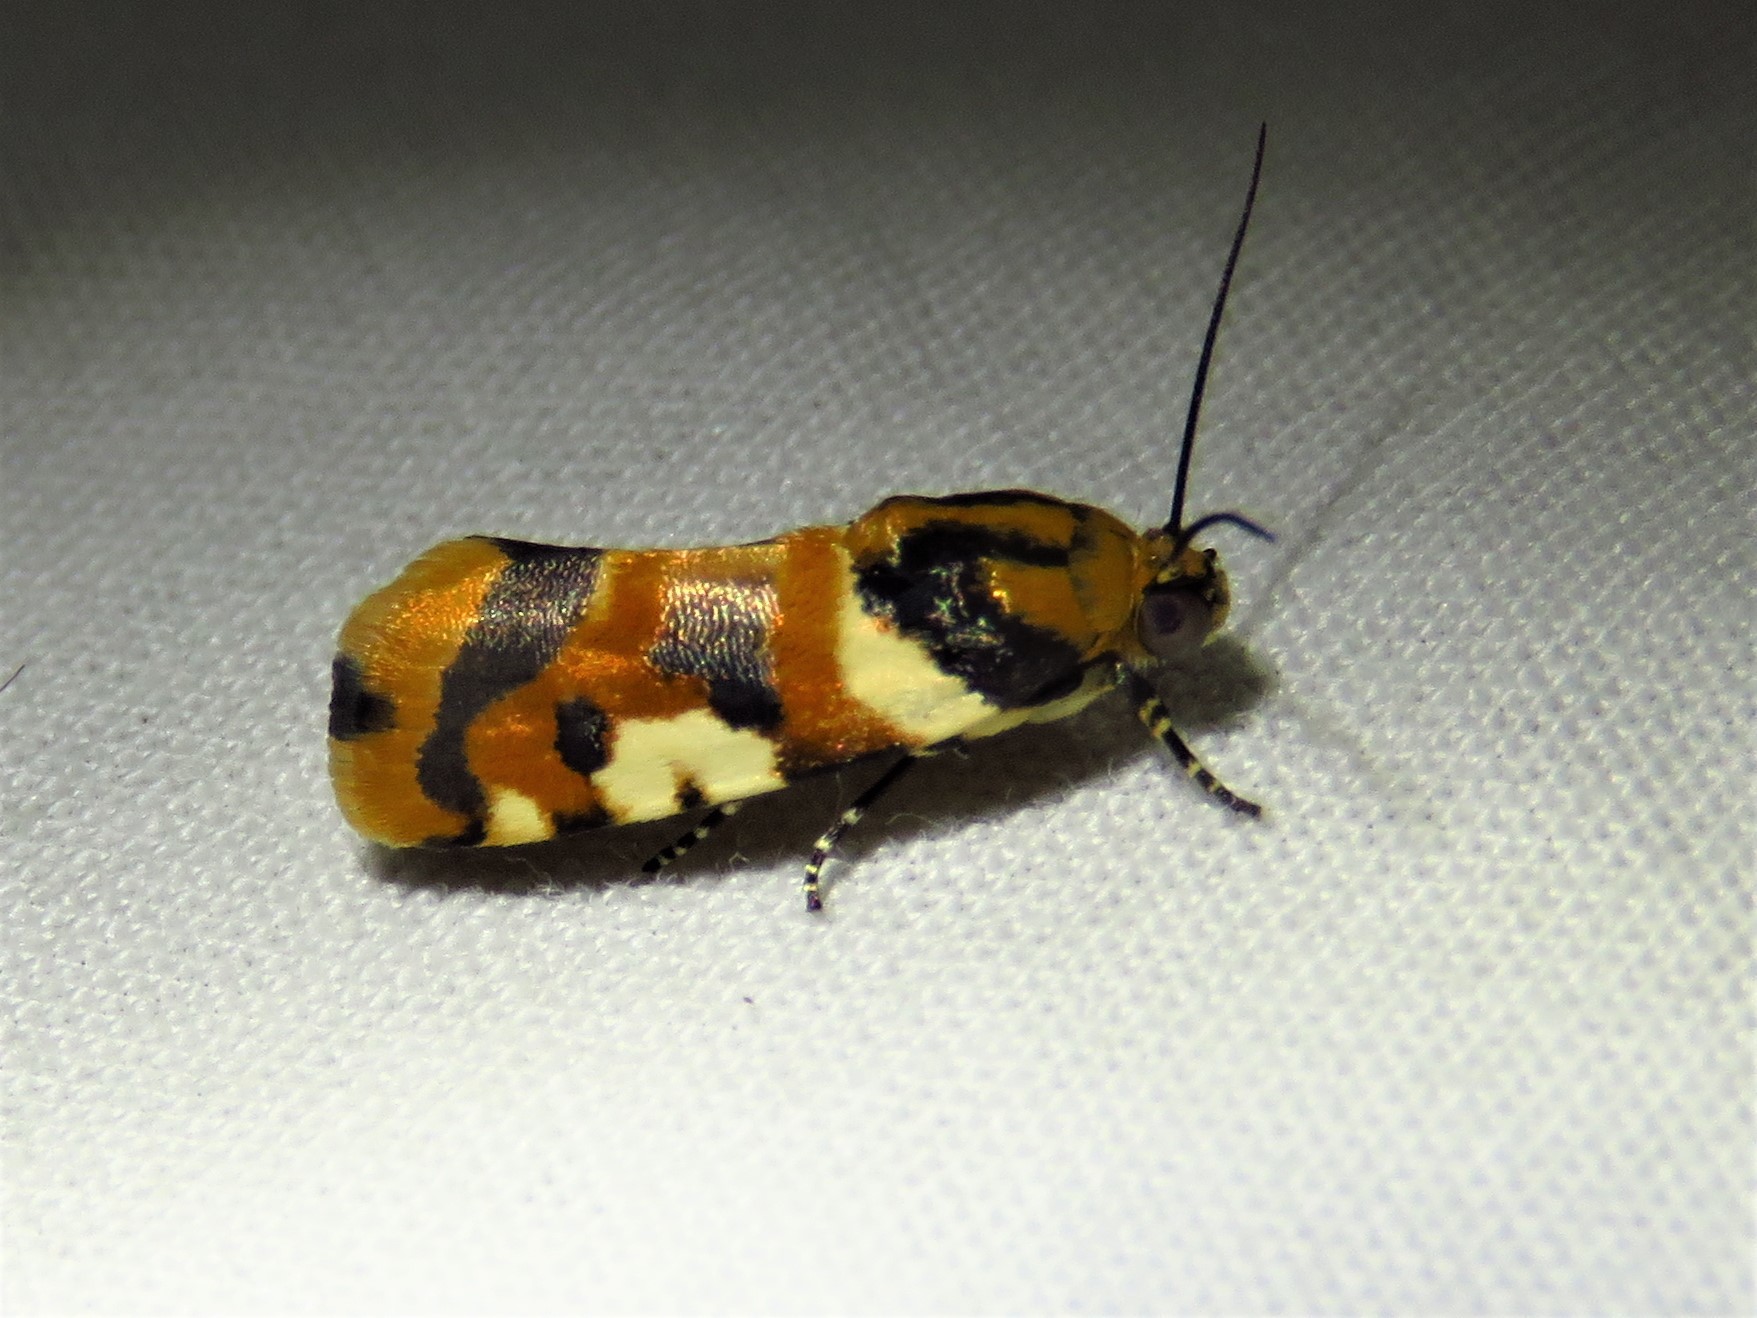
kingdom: Animalia
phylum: Arthropoda
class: Insecta
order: Lepidoptera
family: Noctuidae
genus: Acontia
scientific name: Acontia dama
